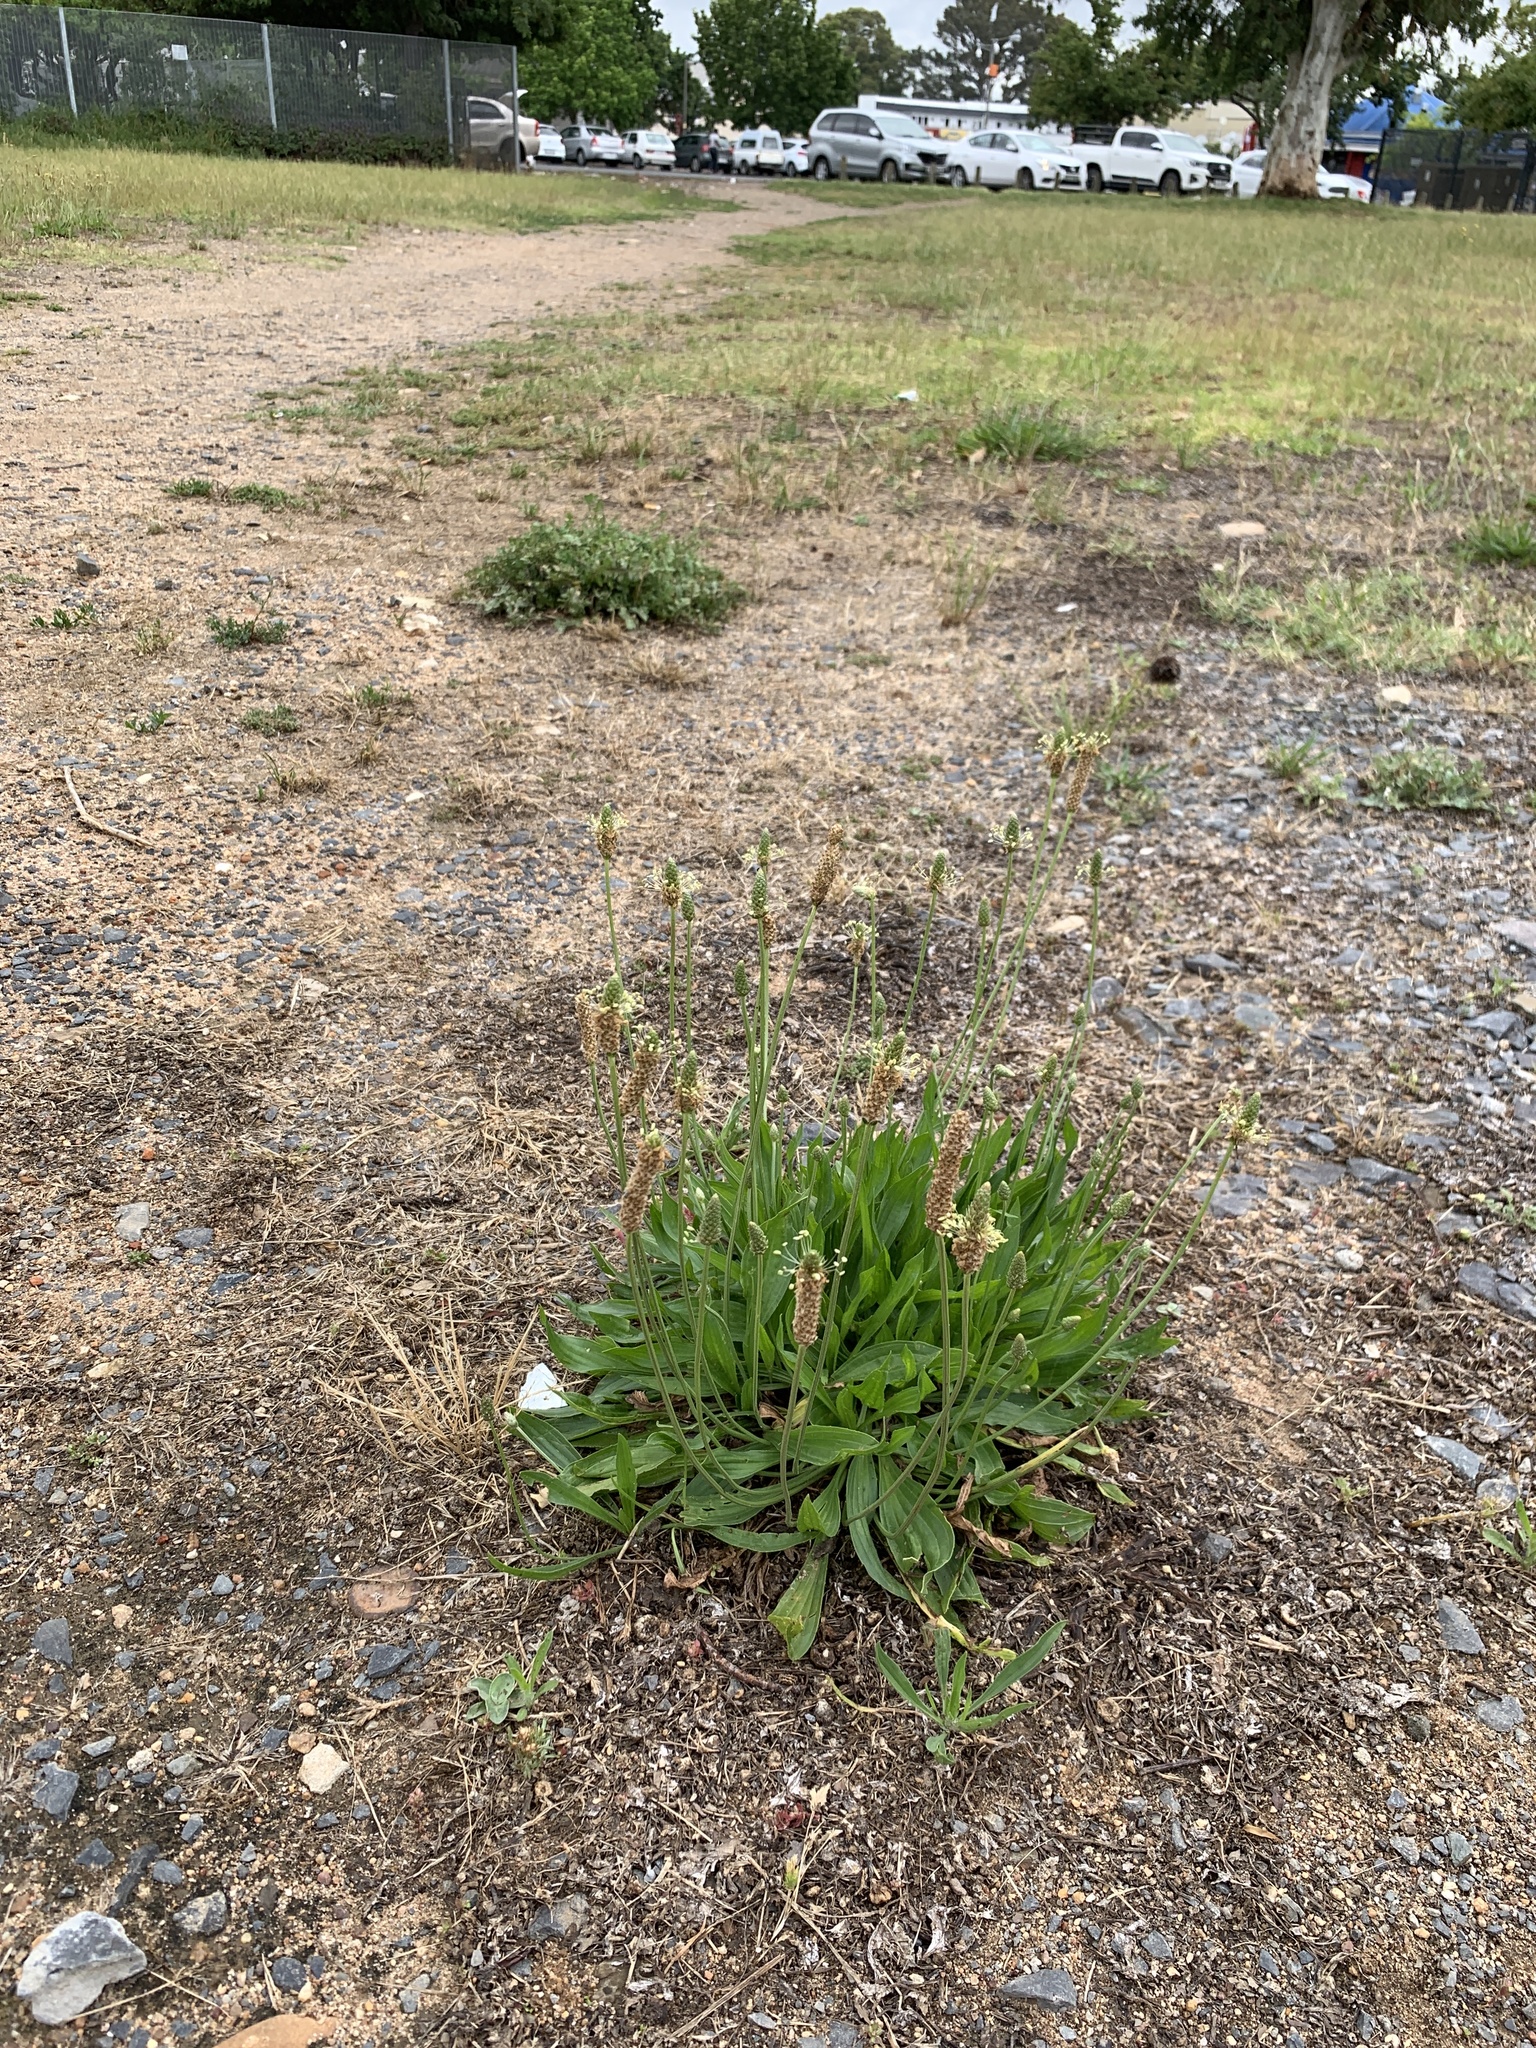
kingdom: Plantae
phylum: Tracheophyta
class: Magnoliopsida
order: Lamiales
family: Plantaginaceae
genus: Plantago
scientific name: Plantago lanceolata
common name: Ribwort plantain
